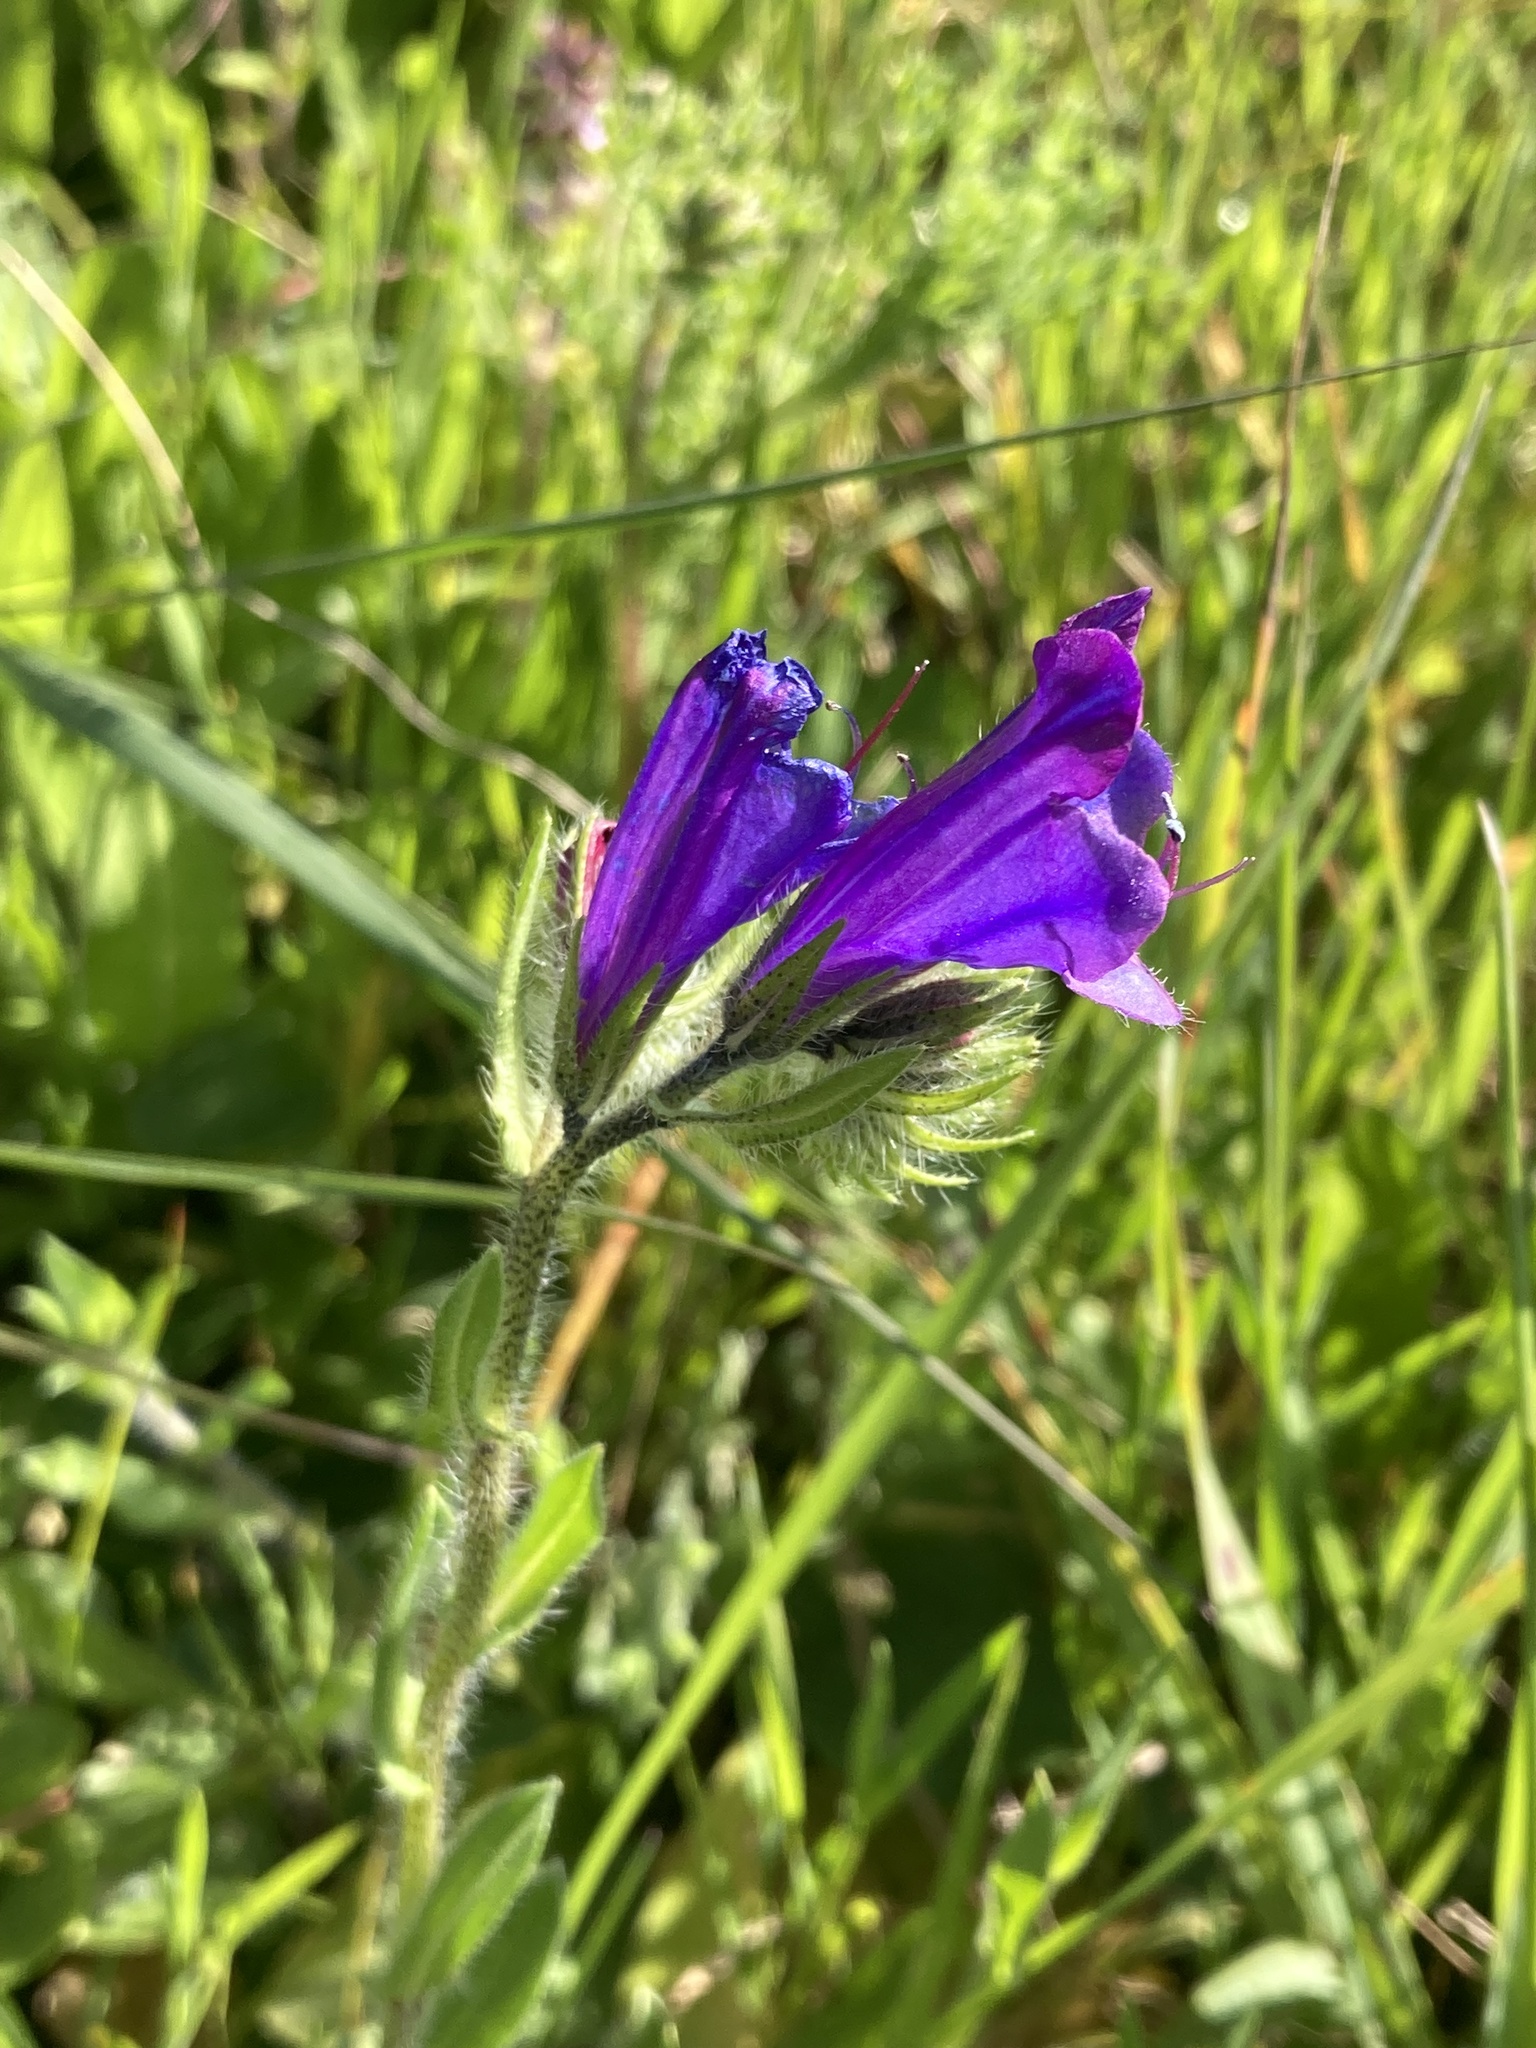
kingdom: Plantae
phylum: Tracheophyta
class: Magnoliopsida
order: Boraginales
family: Boraginaceae
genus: Echium
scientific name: Echium plantagineum
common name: Purple viper's-bugloss
